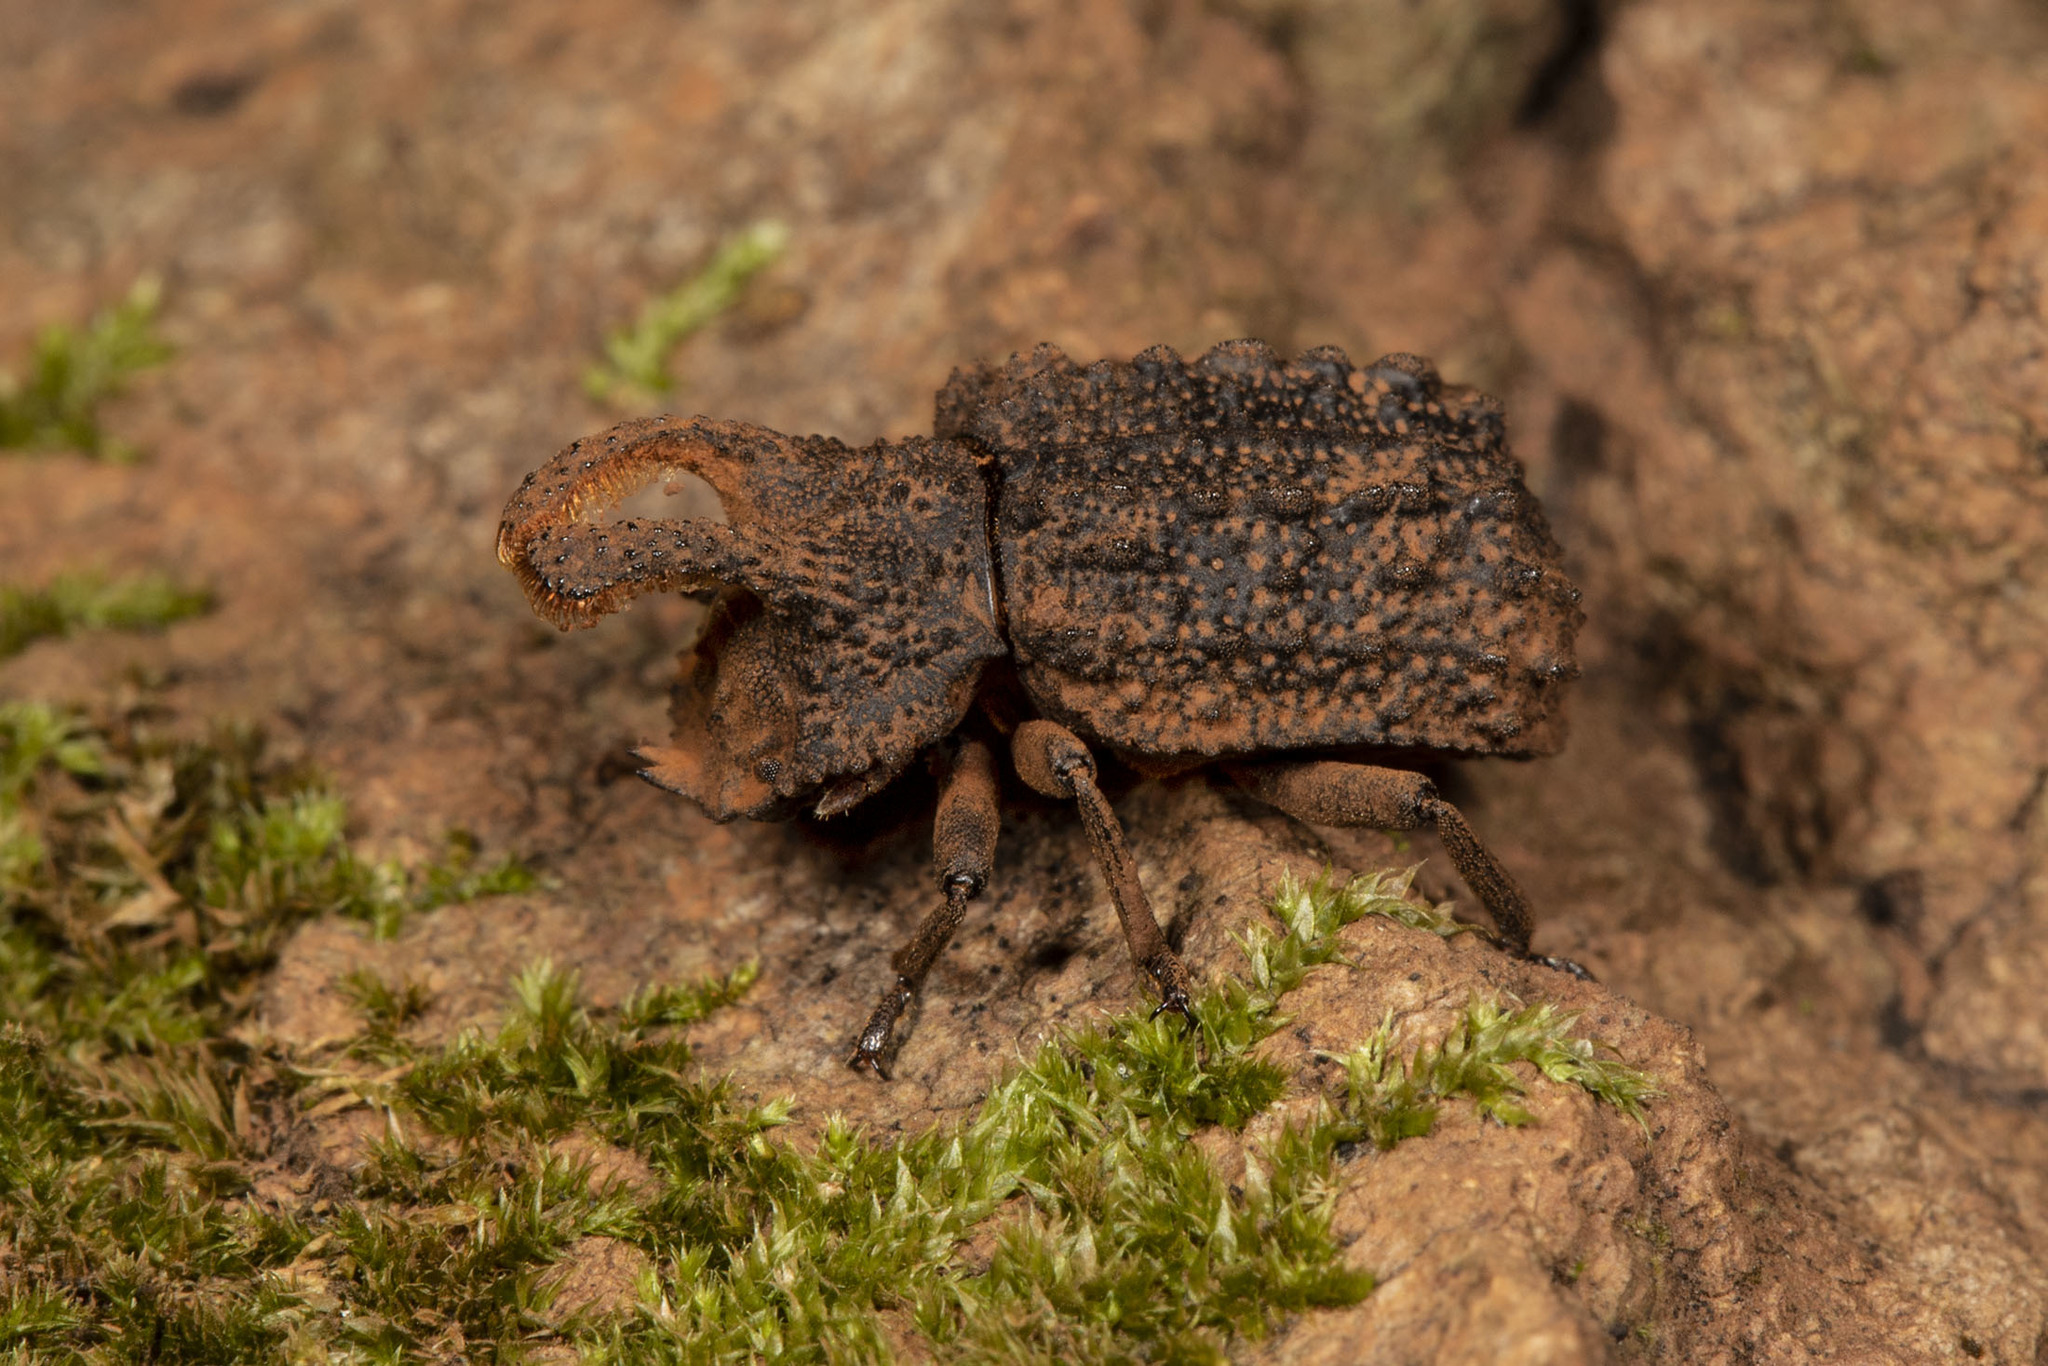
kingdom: Animalia
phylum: Arthropoda
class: Insecta
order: Coleoptera
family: Tenebrionidae
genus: Gnatocerus
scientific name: Gnatocerus cornutus
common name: Broad-horned flour beetle
